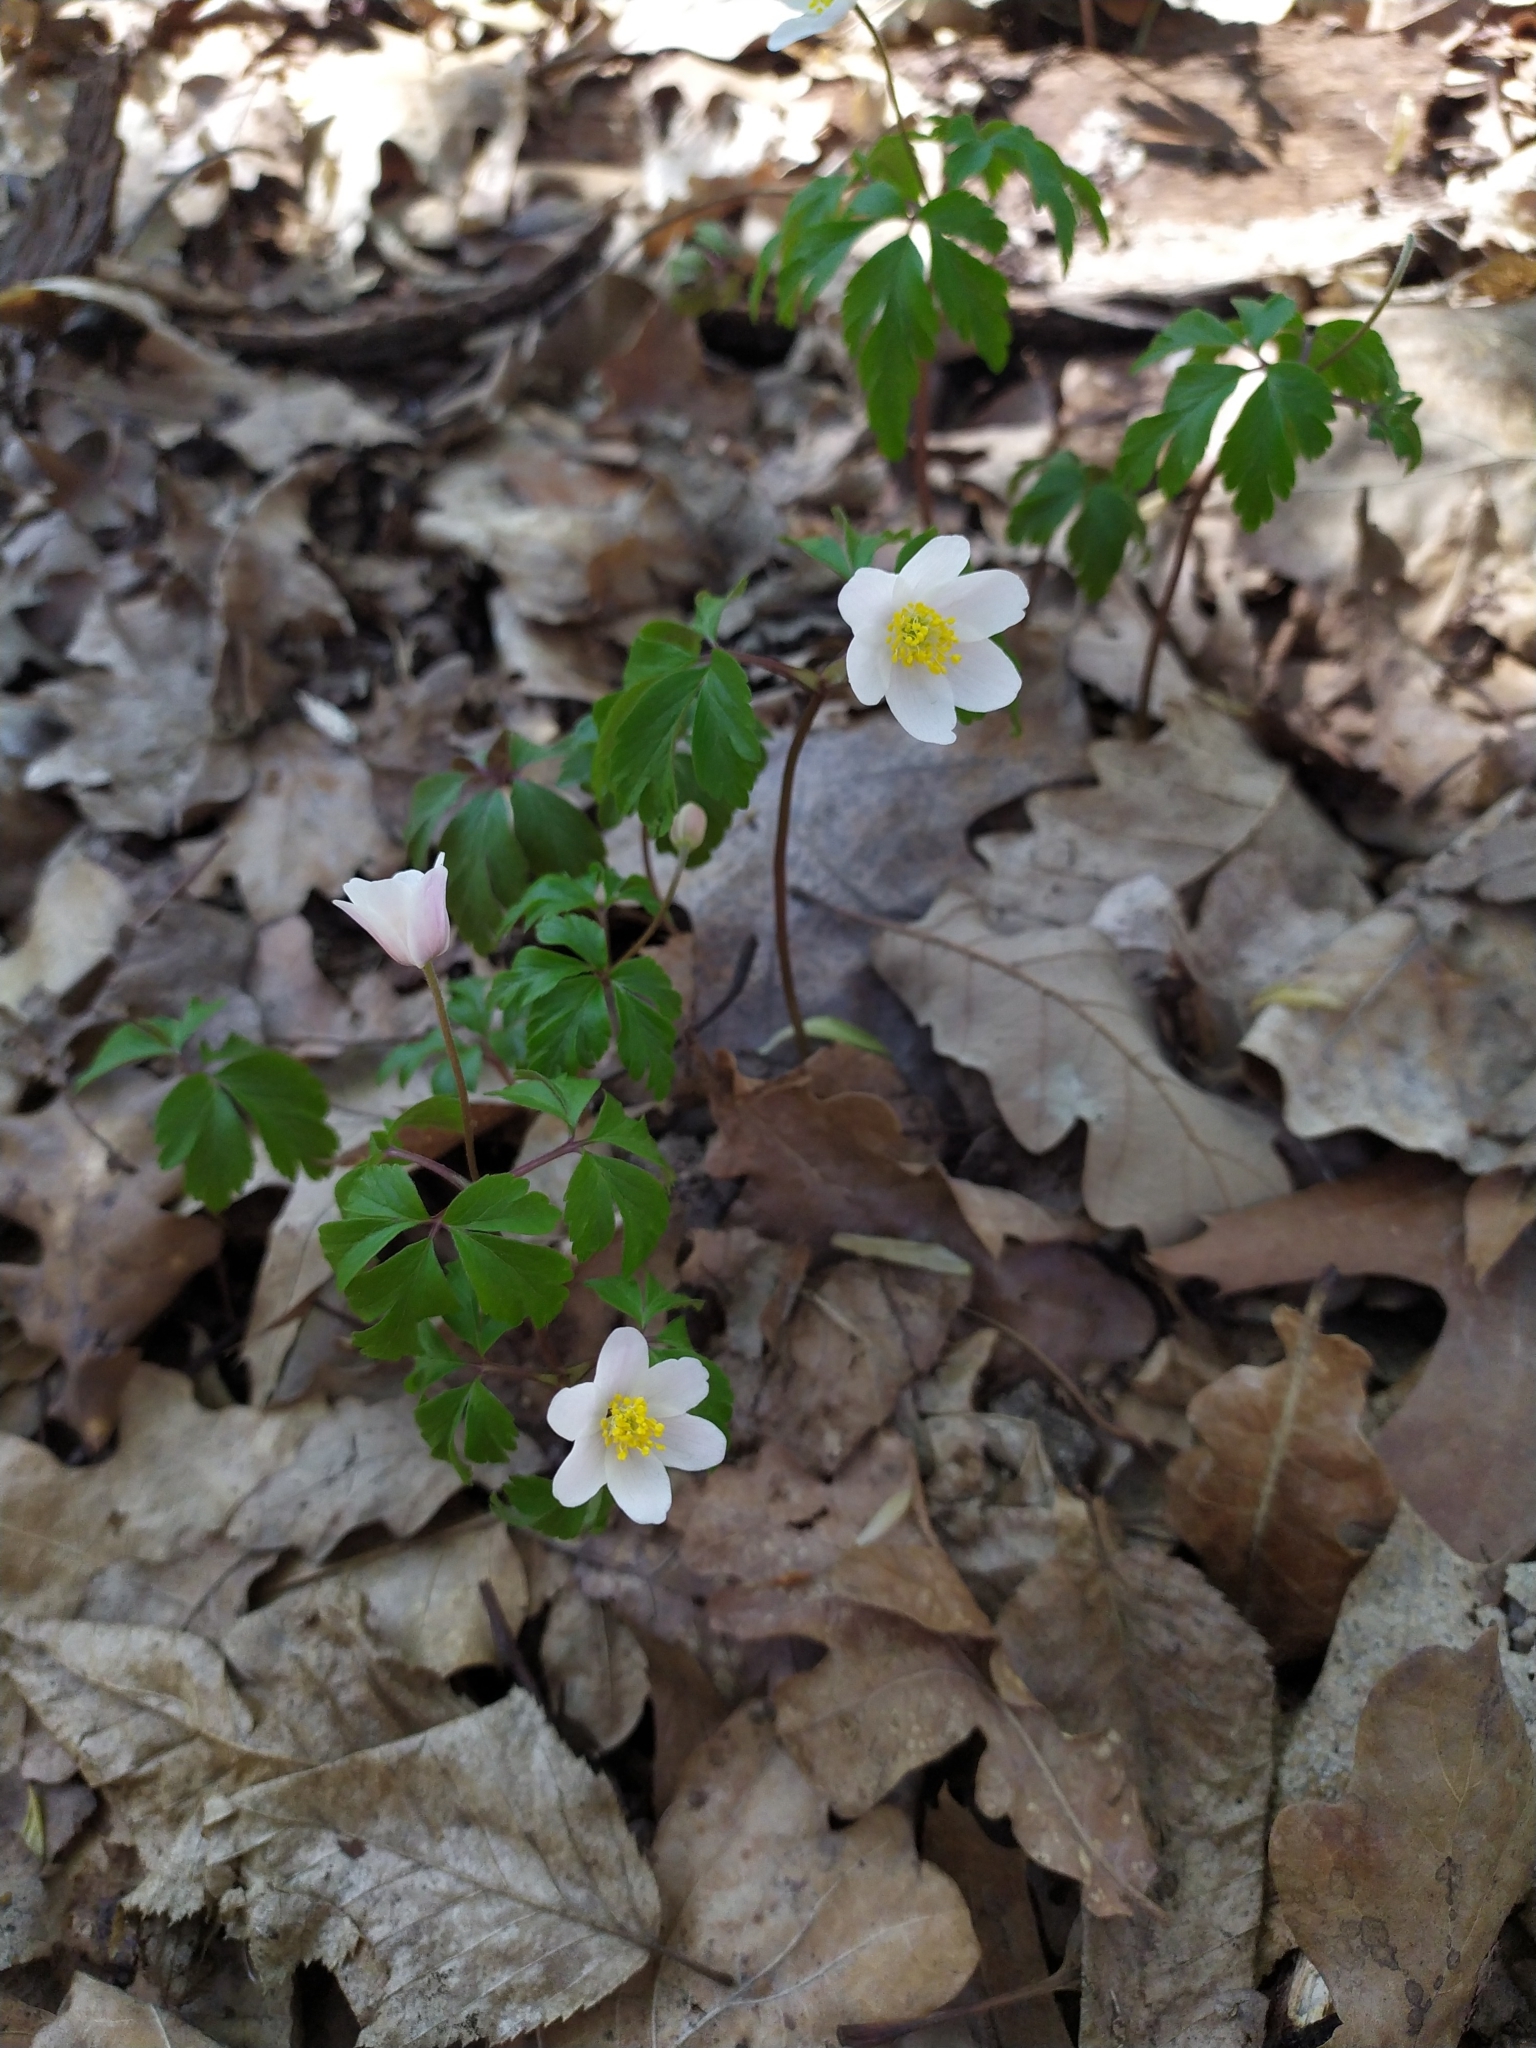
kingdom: Plantae
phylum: Tracheophyta
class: Magnoliopsida
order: Ranunculales
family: Ranunculaceae
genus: Anemone
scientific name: Anemone nemorosa
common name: Wood anemone
